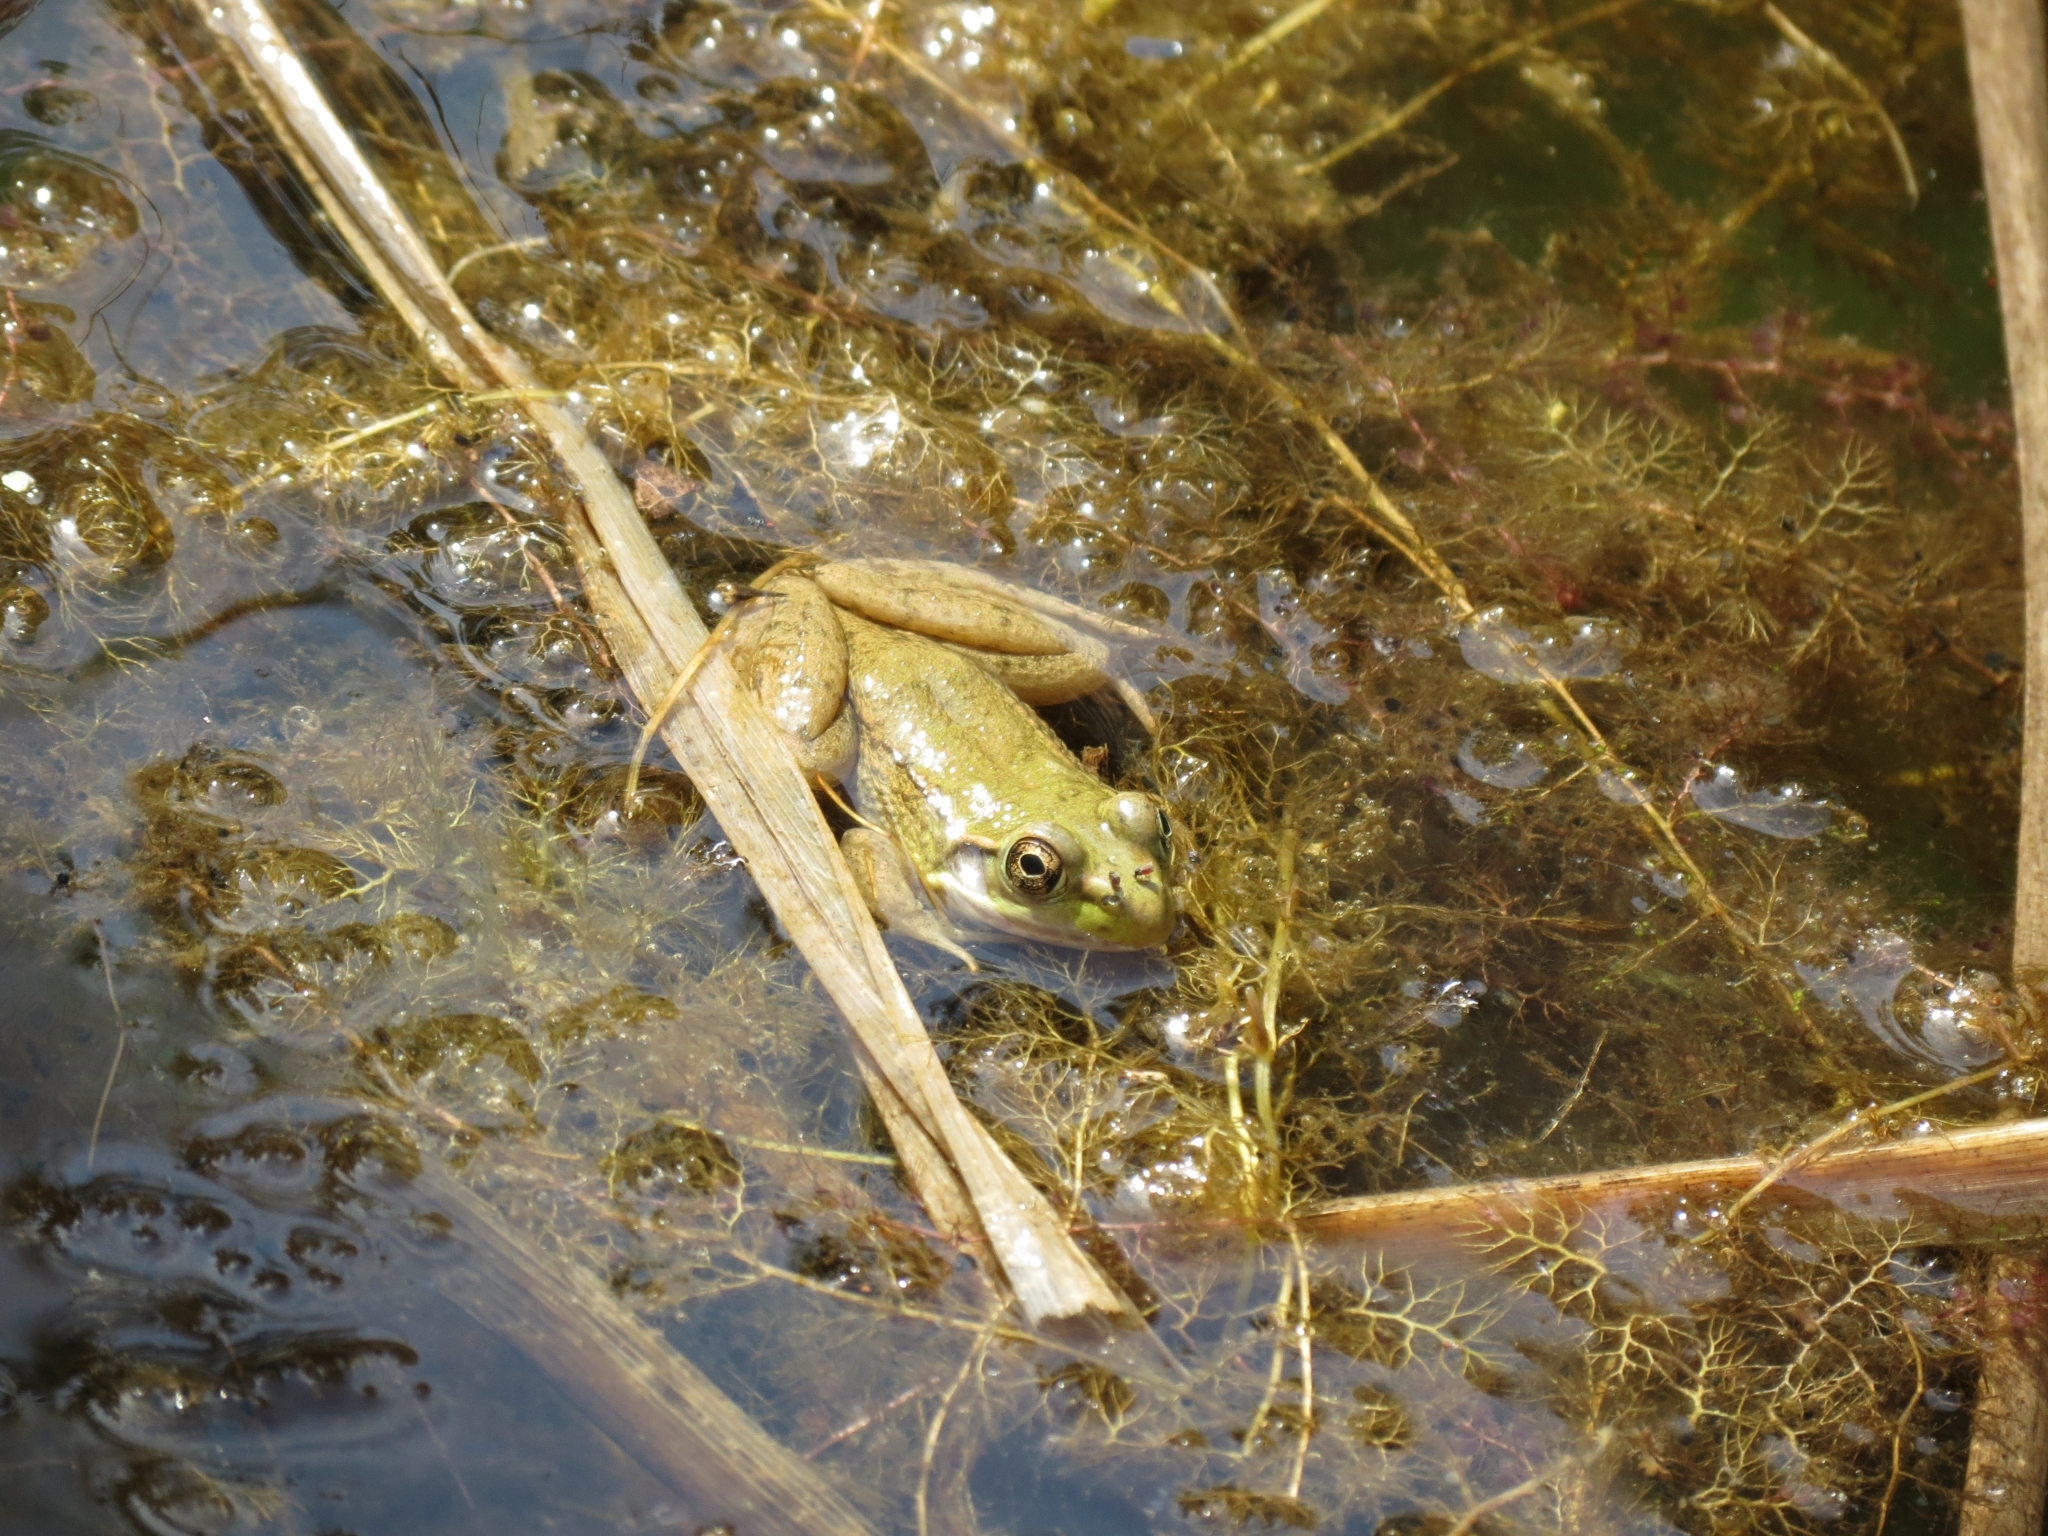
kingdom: Animalia
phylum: Chordata
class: Amphibia
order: Anura
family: Ranidae
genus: Lithobates
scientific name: Lithobates clamitans
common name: Green frog
